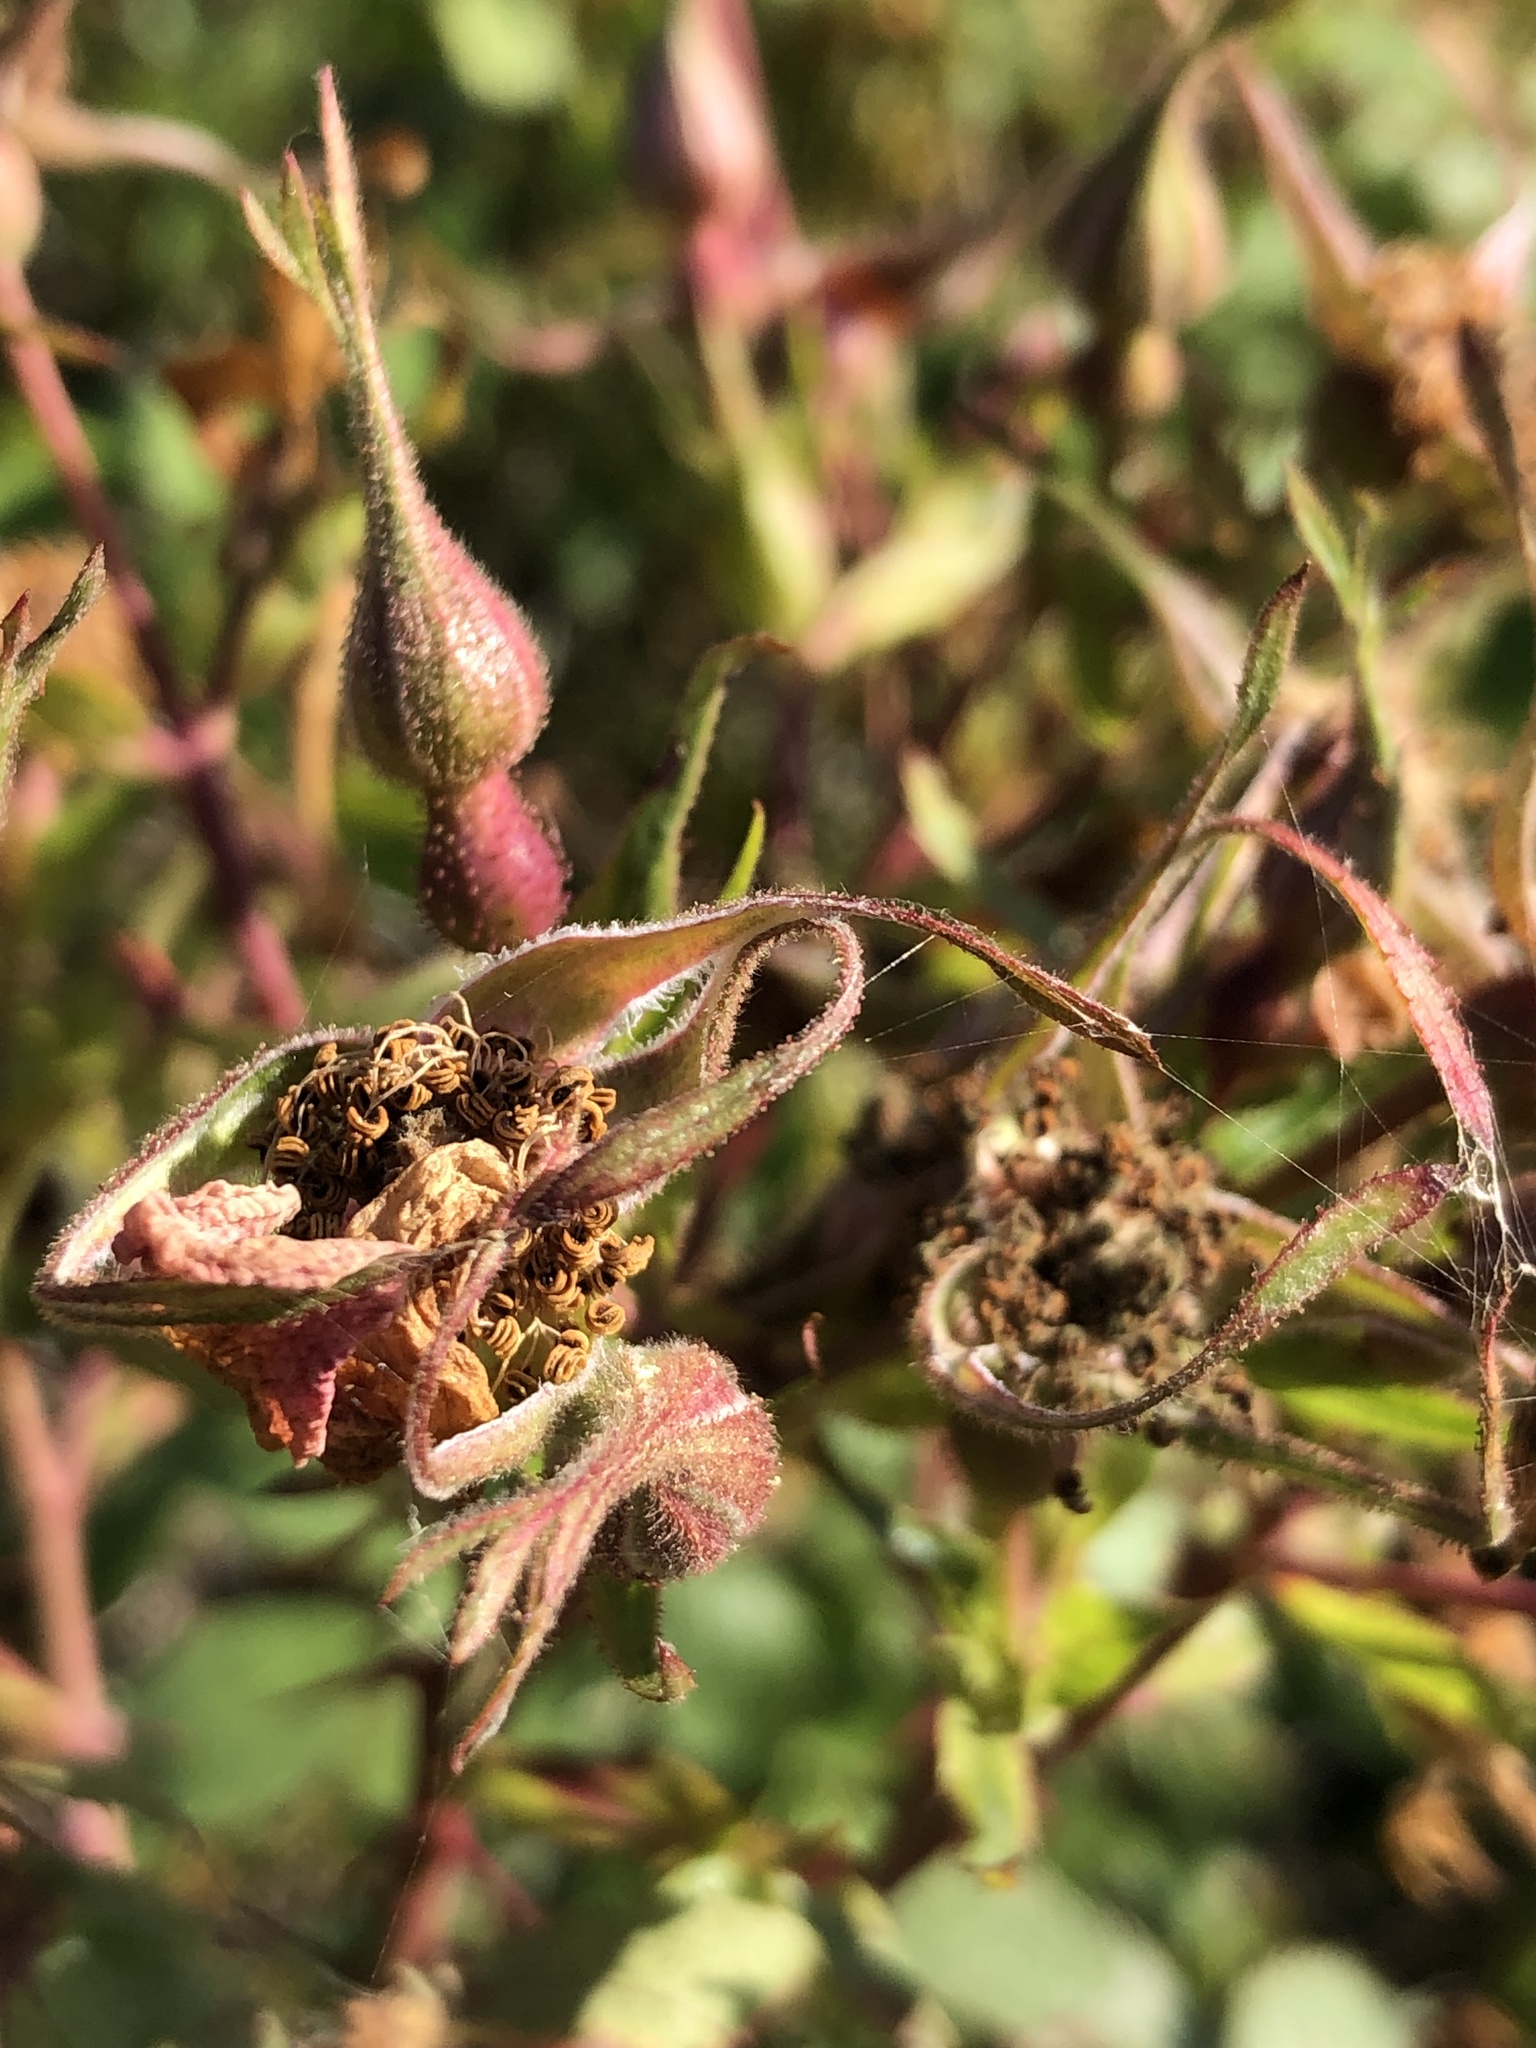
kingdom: Plantae
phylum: Tracheophyta
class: Magnoliopsida
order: Rosales
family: Rosaceae
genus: Rosa
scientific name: Rosa spithamea
